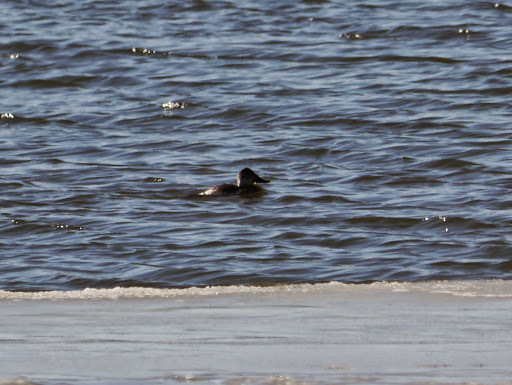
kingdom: Animalia
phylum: Chordata
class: Aves
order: Anseriformes
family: Anatidae
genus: Oxyura
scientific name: Oxyura jamaicensis
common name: Ruddy duck
